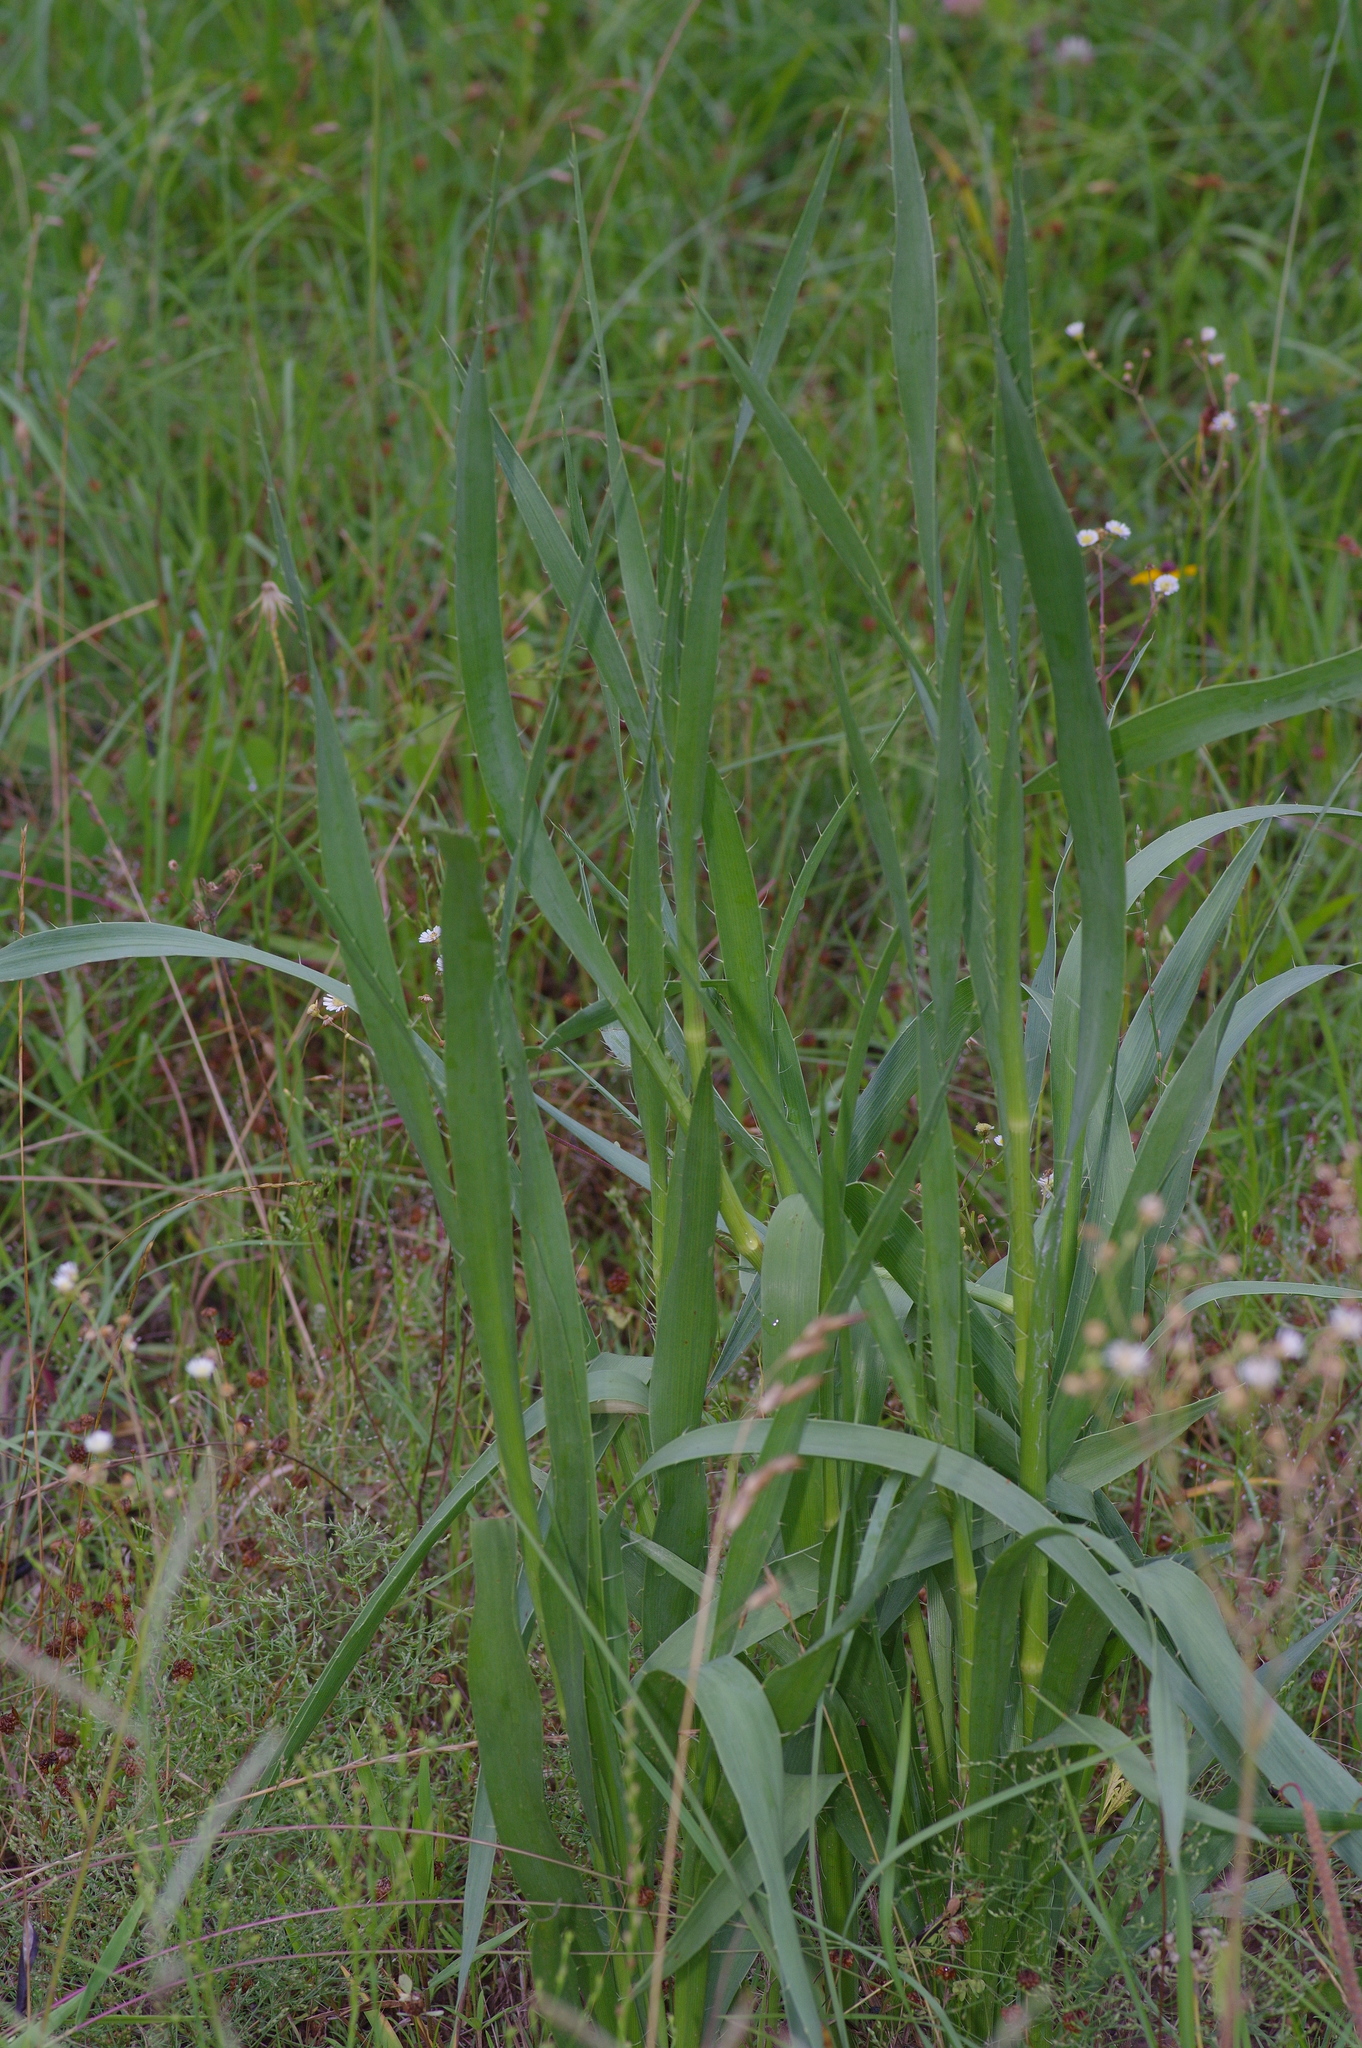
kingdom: Plantae
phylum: Tracheophyta
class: Magnoliopsida
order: Apiales
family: Apiaceae
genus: Eryngium
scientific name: Eryngium yuccifolium
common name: Button eryngo
